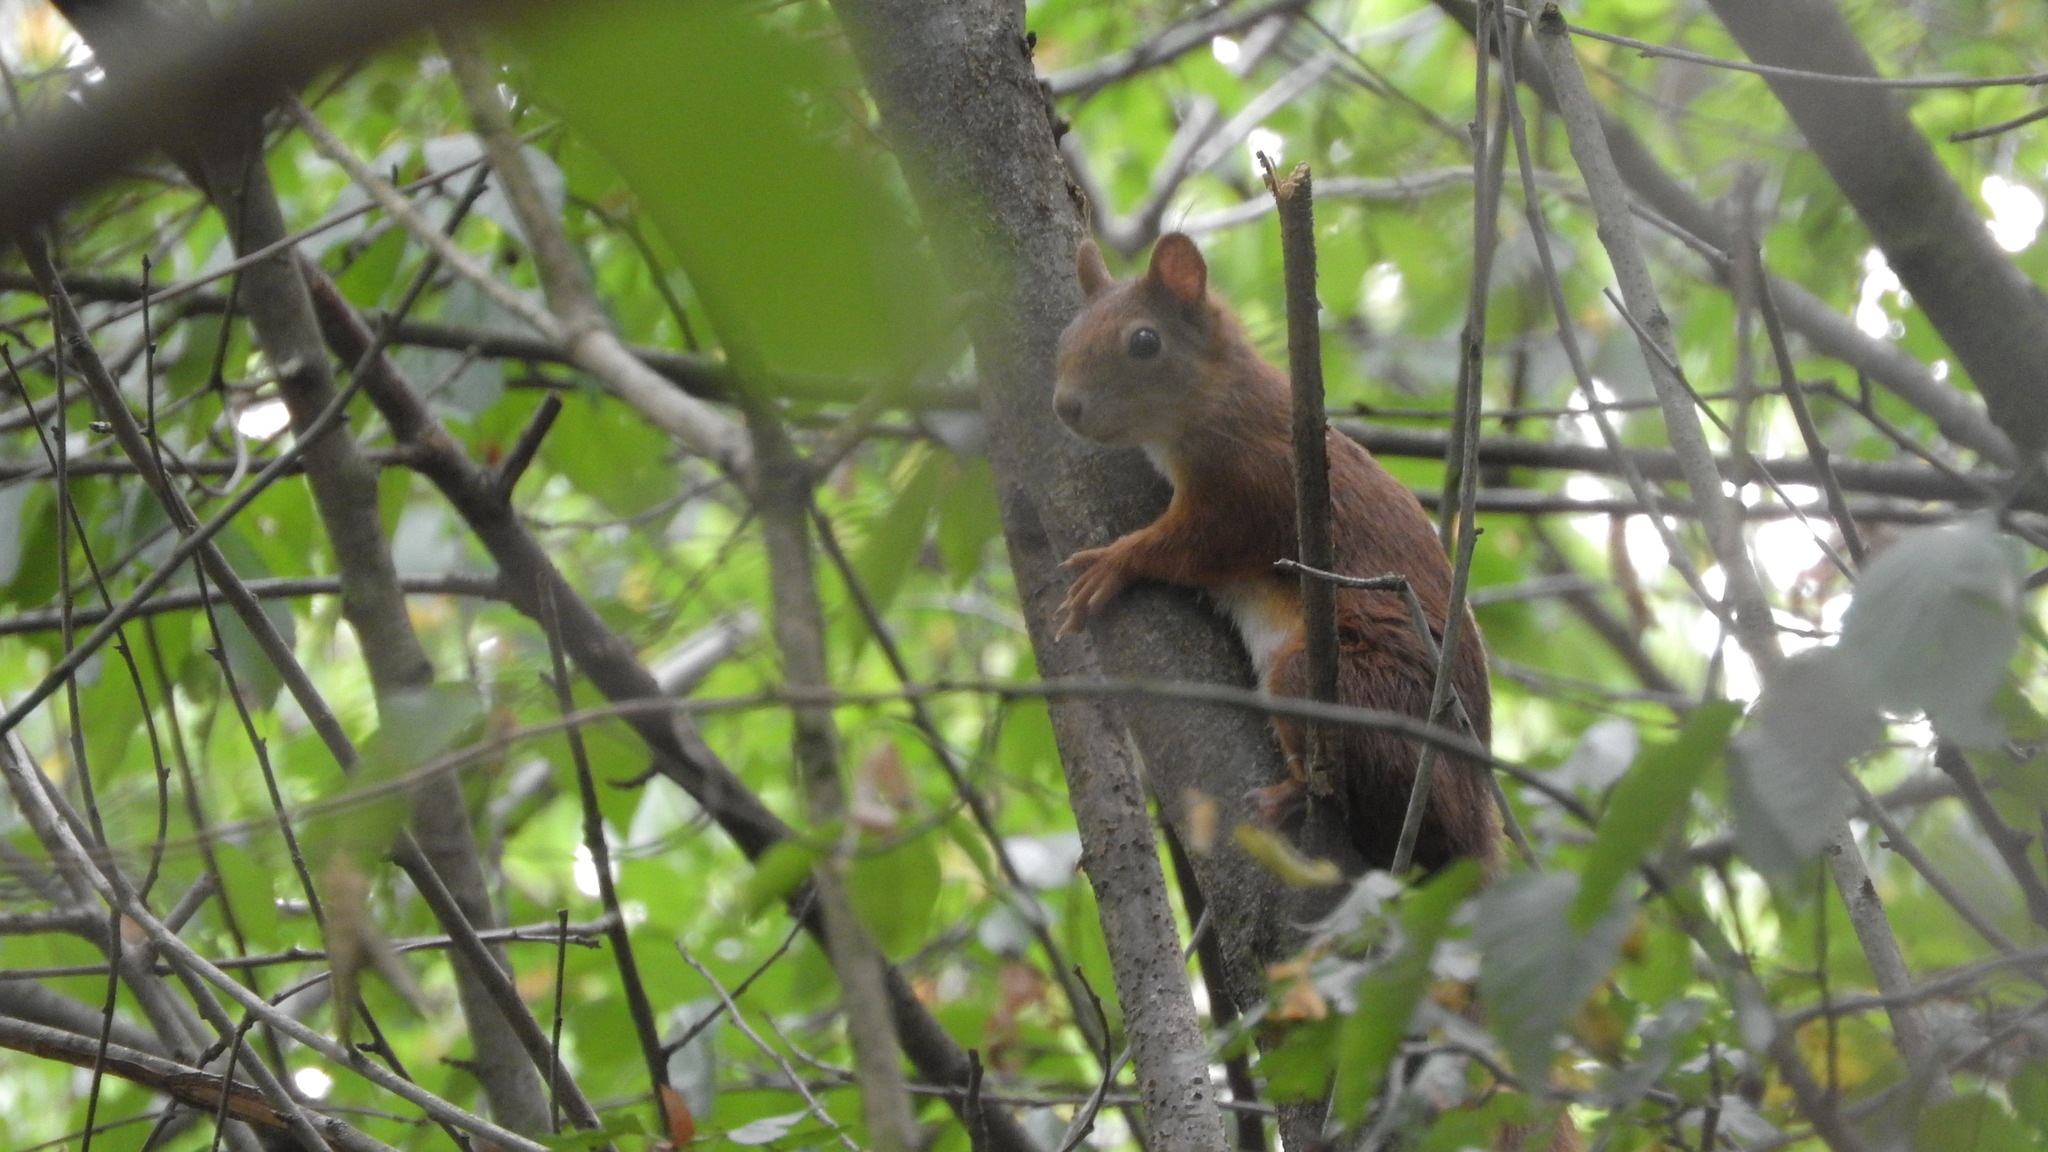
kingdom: Animalia
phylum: Chordata
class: Mammalia
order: Rodentia
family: Sciuridae
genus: Sciurus
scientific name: Sciurus vulgaris
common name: Eurasian red squirrel
